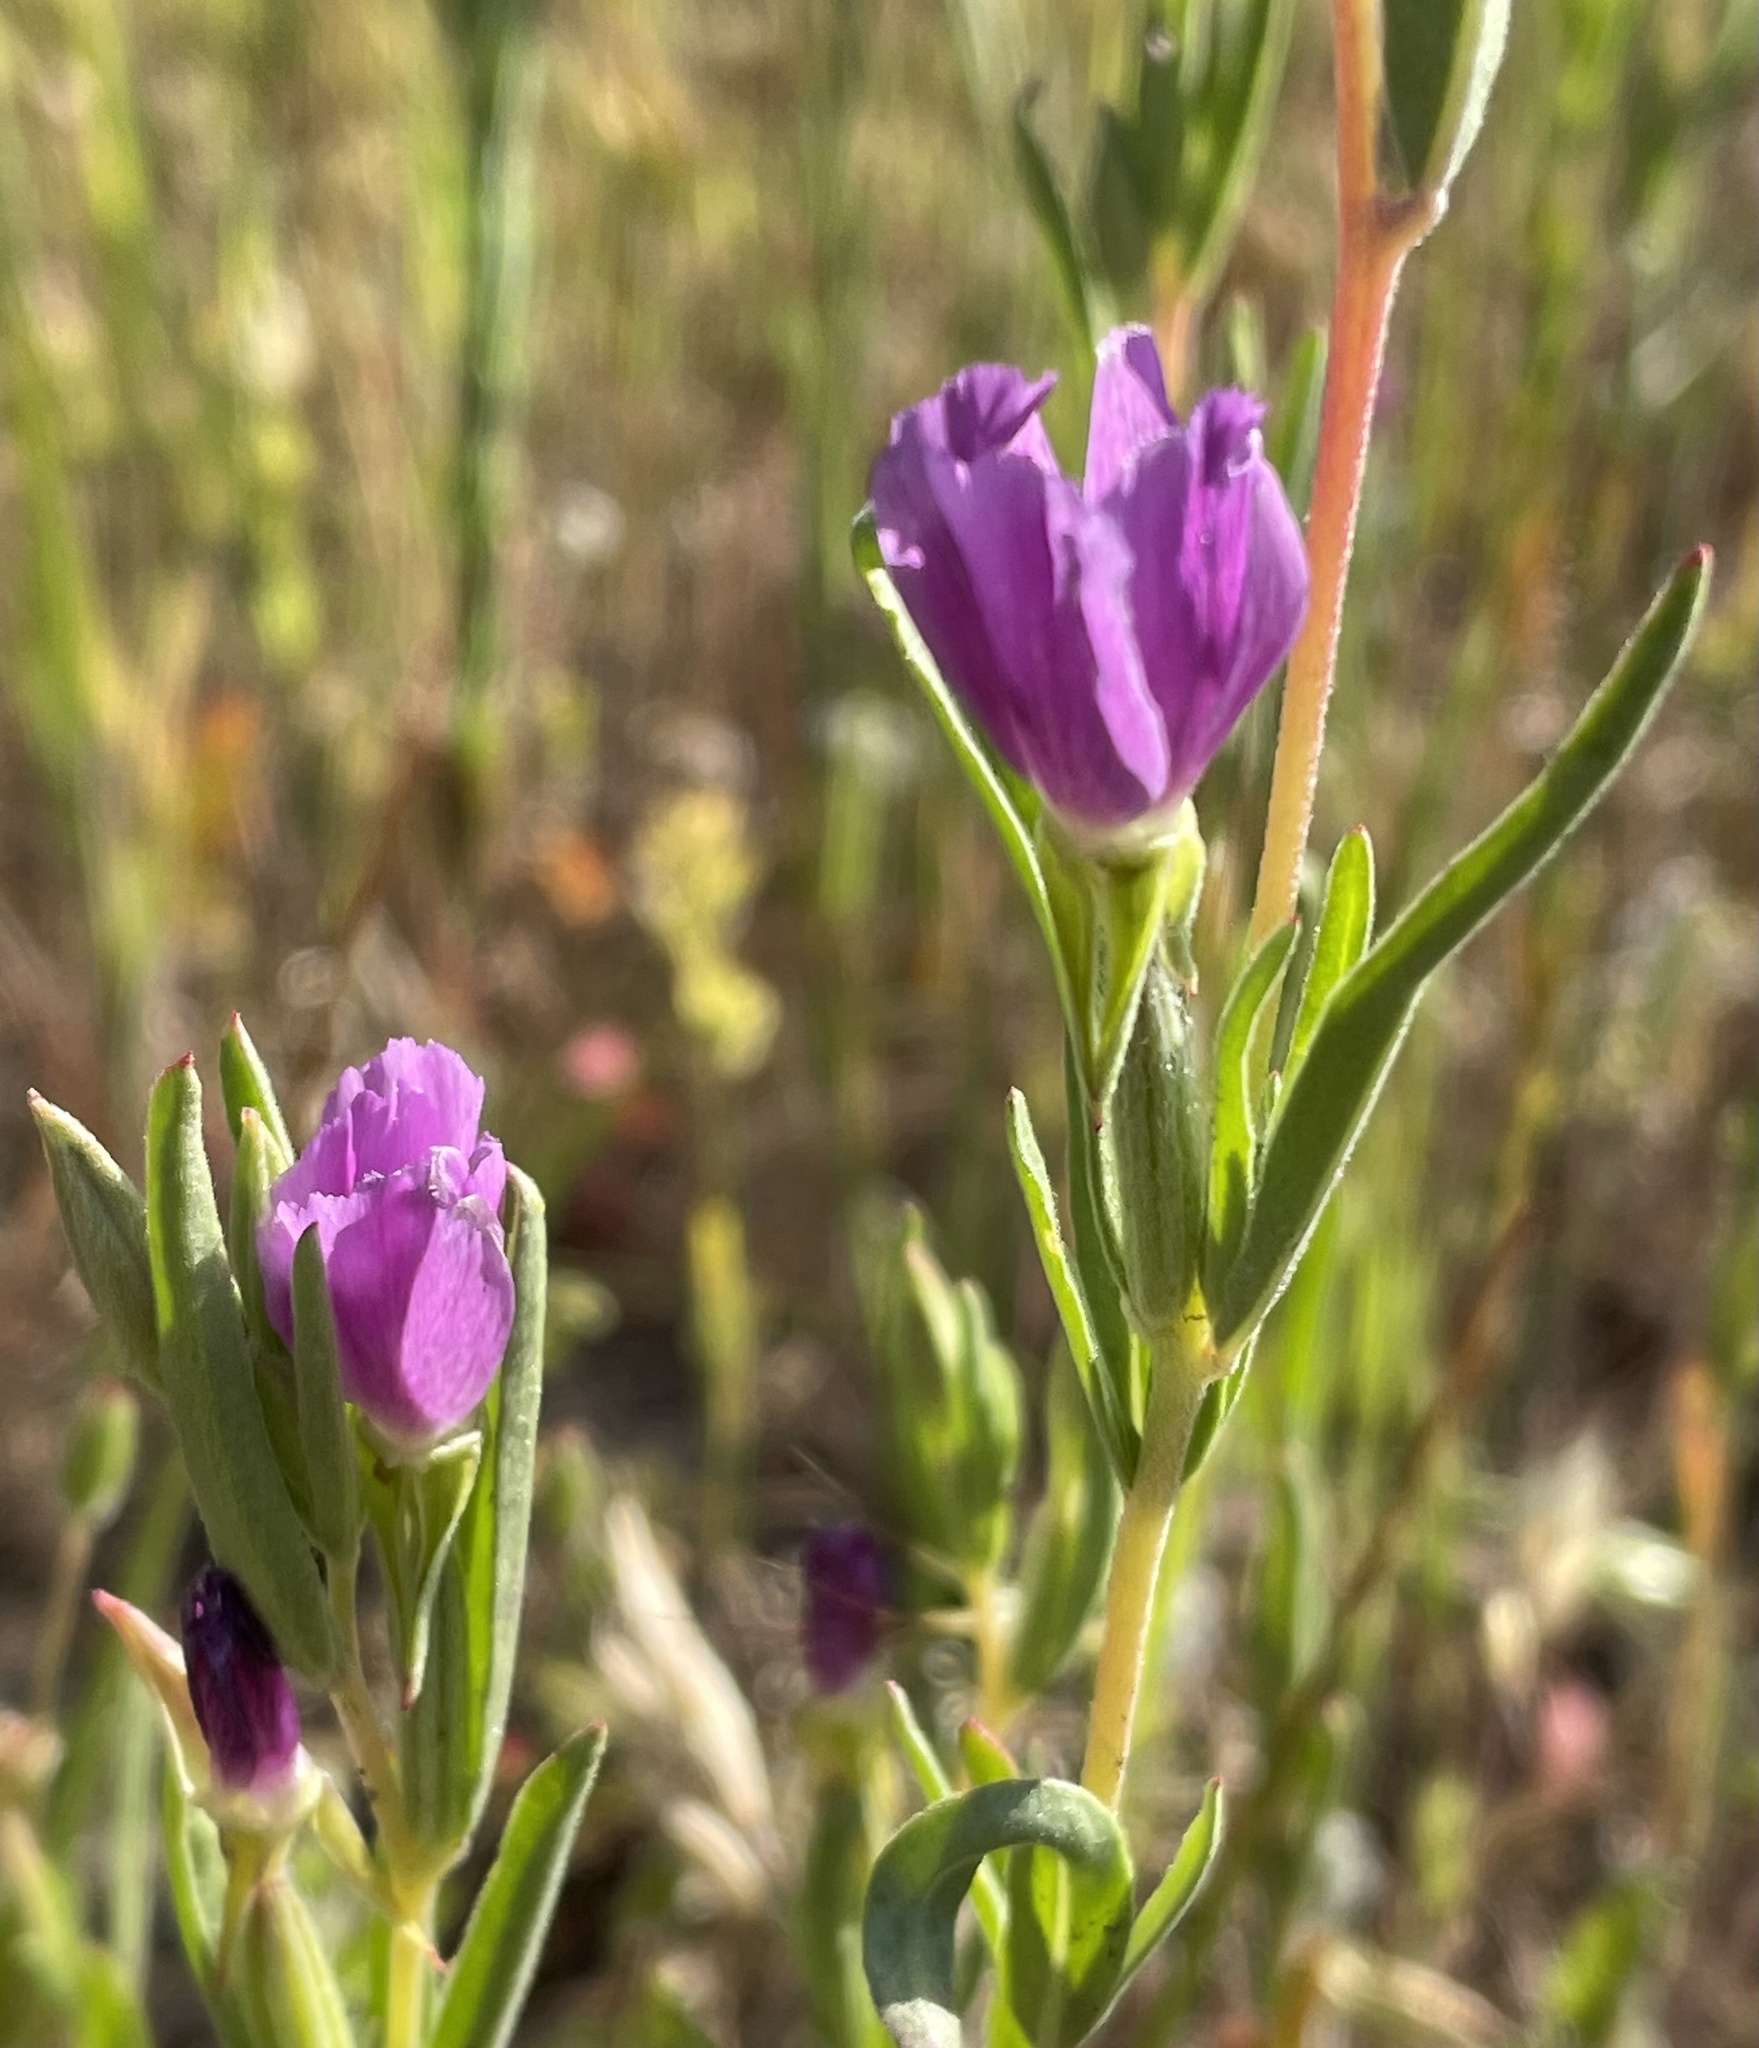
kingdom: Plantae
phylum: Tracheophyta
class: Magnoliopsida
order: Myrtales
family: Onagraceae
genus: Clarkia
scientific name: Clarkia purpurea
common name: Purple clarkia
